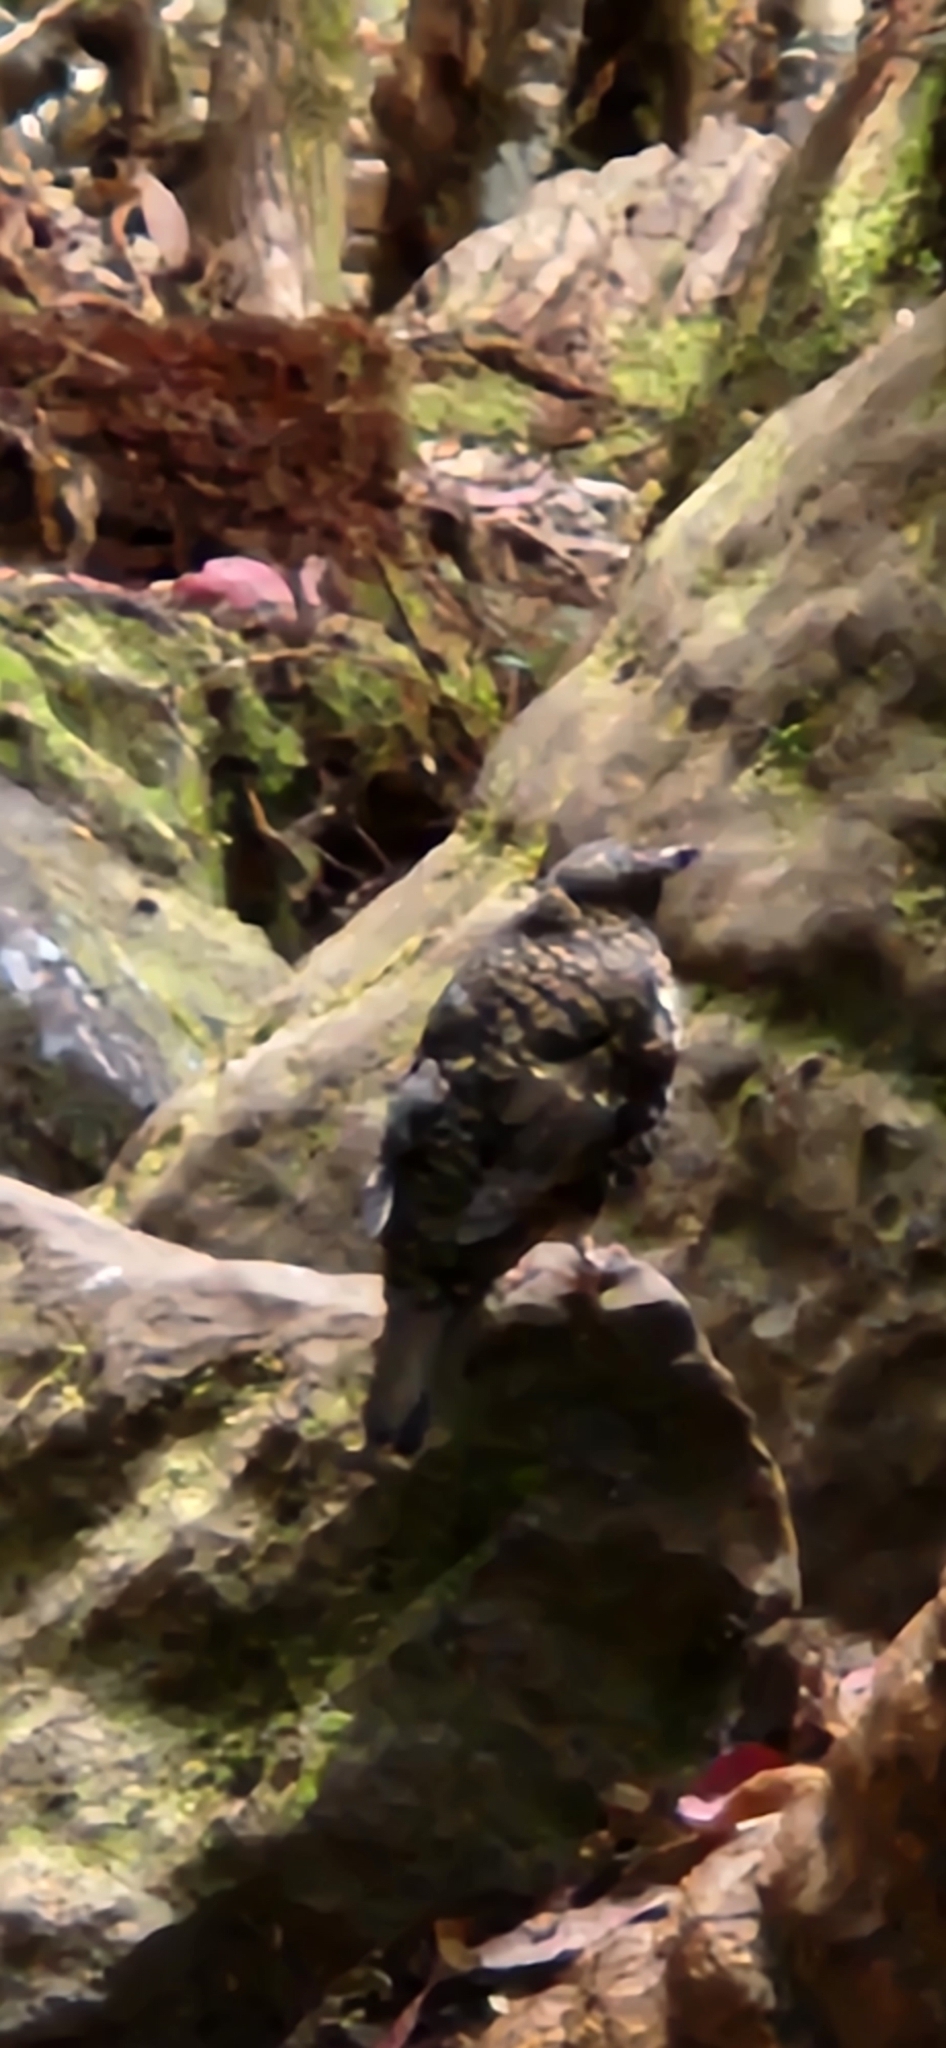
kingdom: Animalia
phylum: Chordata
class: Aves
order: Passeriformes
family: Turdidae
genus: Zoothera
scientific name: Zoothera lunulata
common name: Bassian thrush
